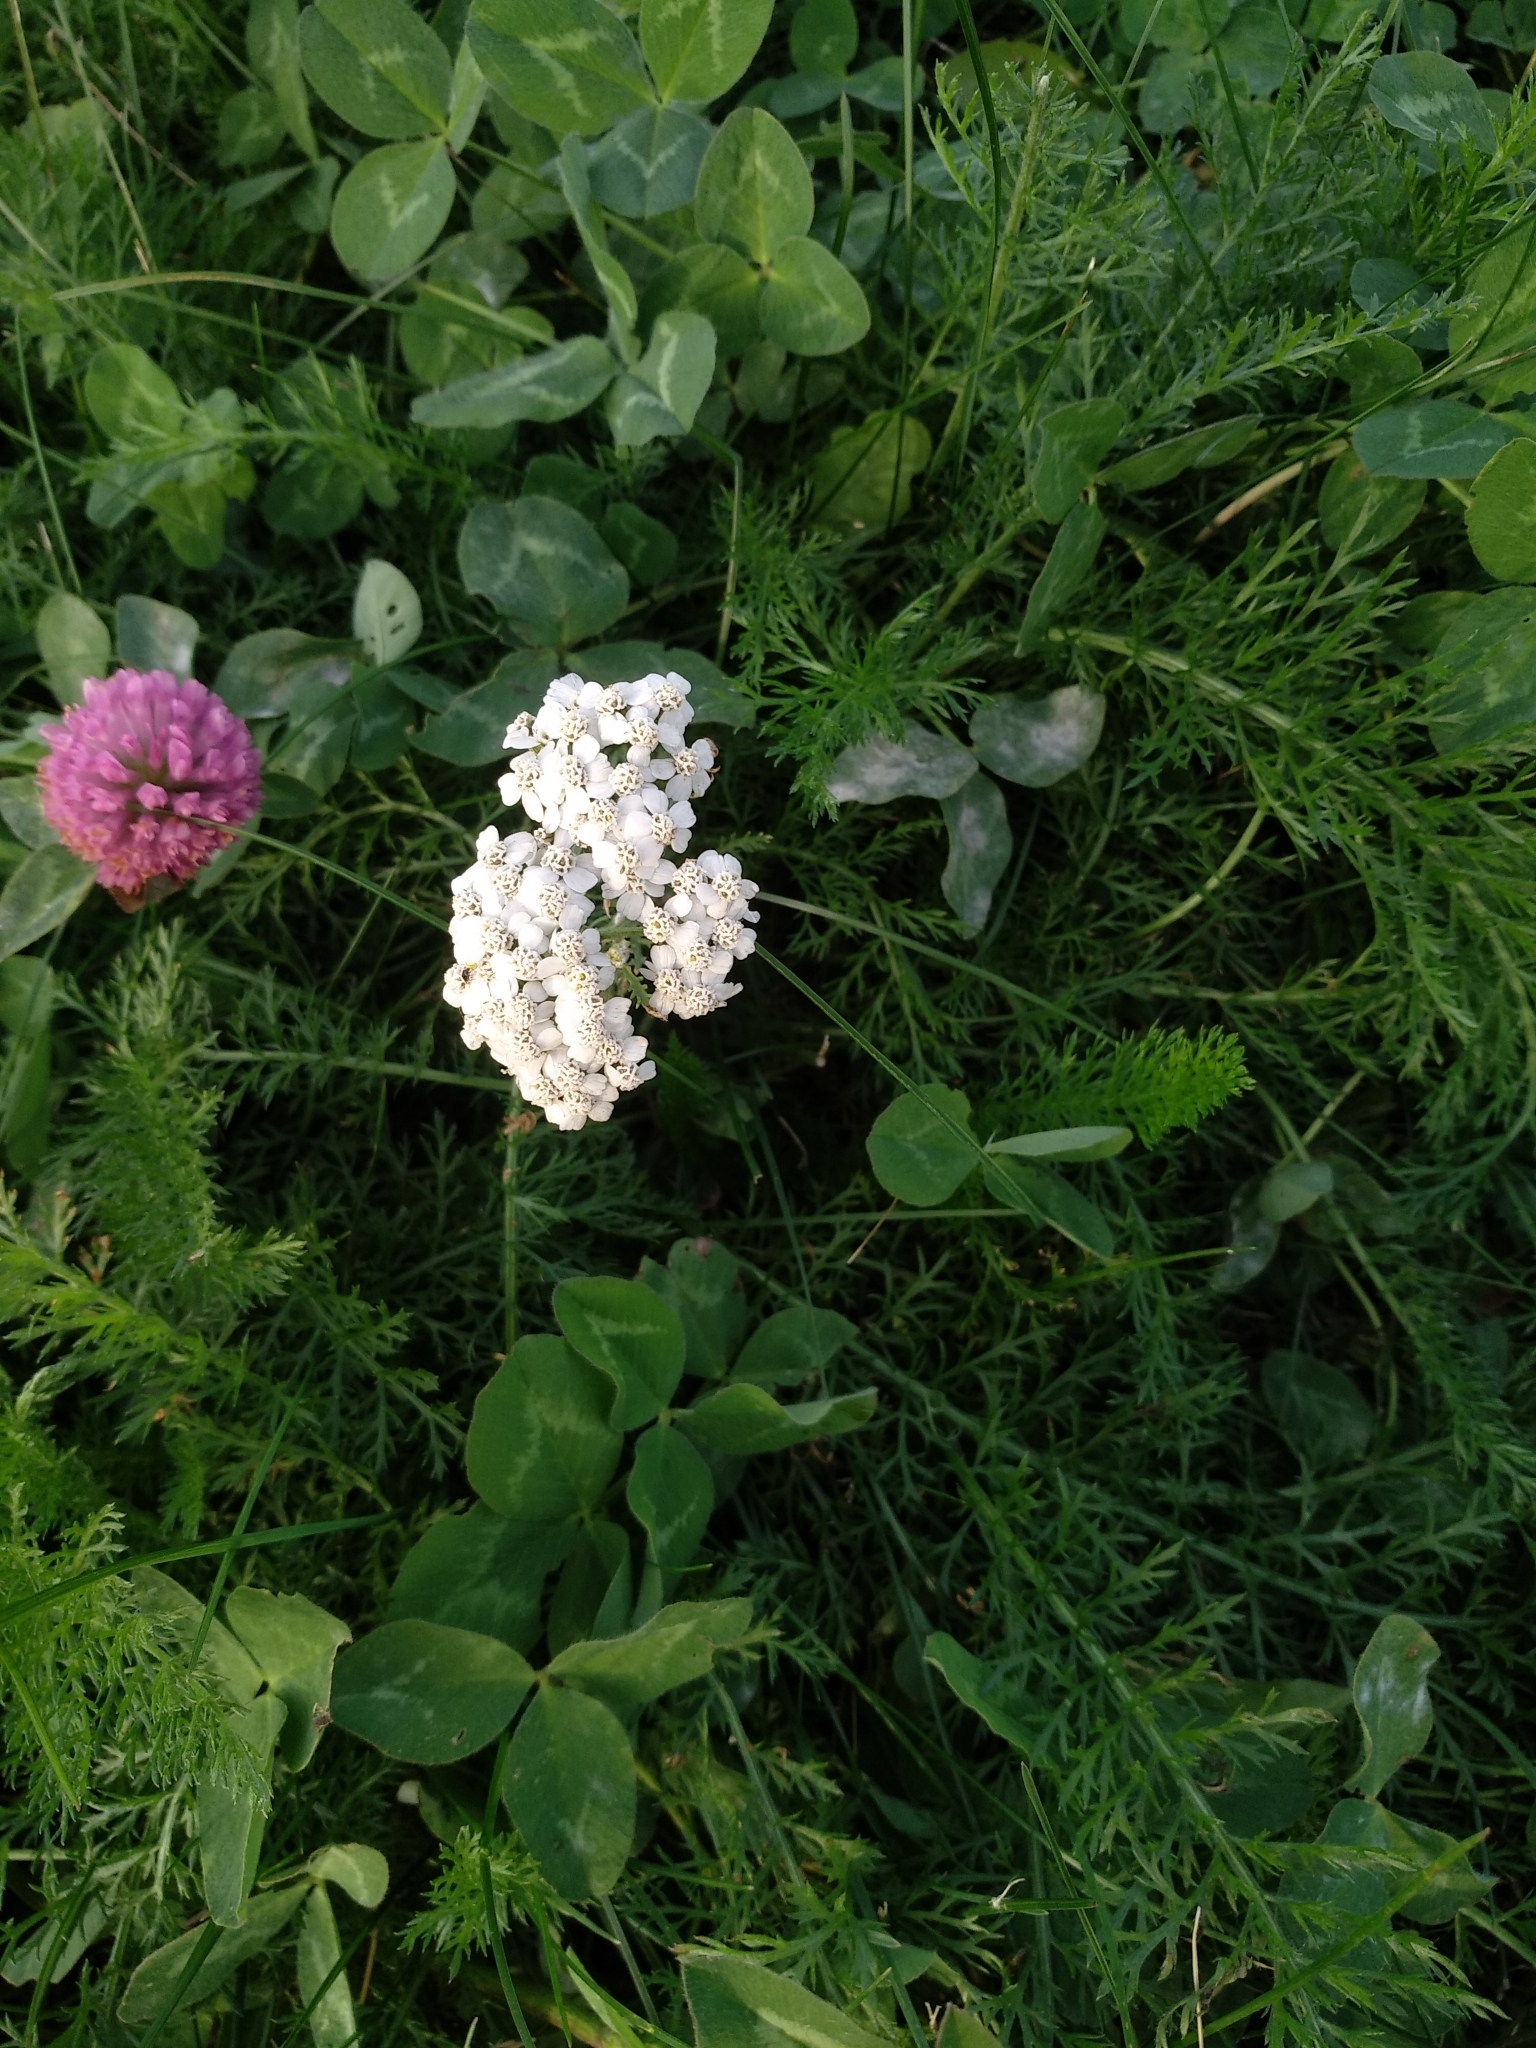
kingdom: Plantae
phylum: Tracheophyta
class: Magnoliopsida
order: Asterales
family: Asteraceae
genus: Achillea
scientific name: Achillea millefolium
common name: Yarrow
